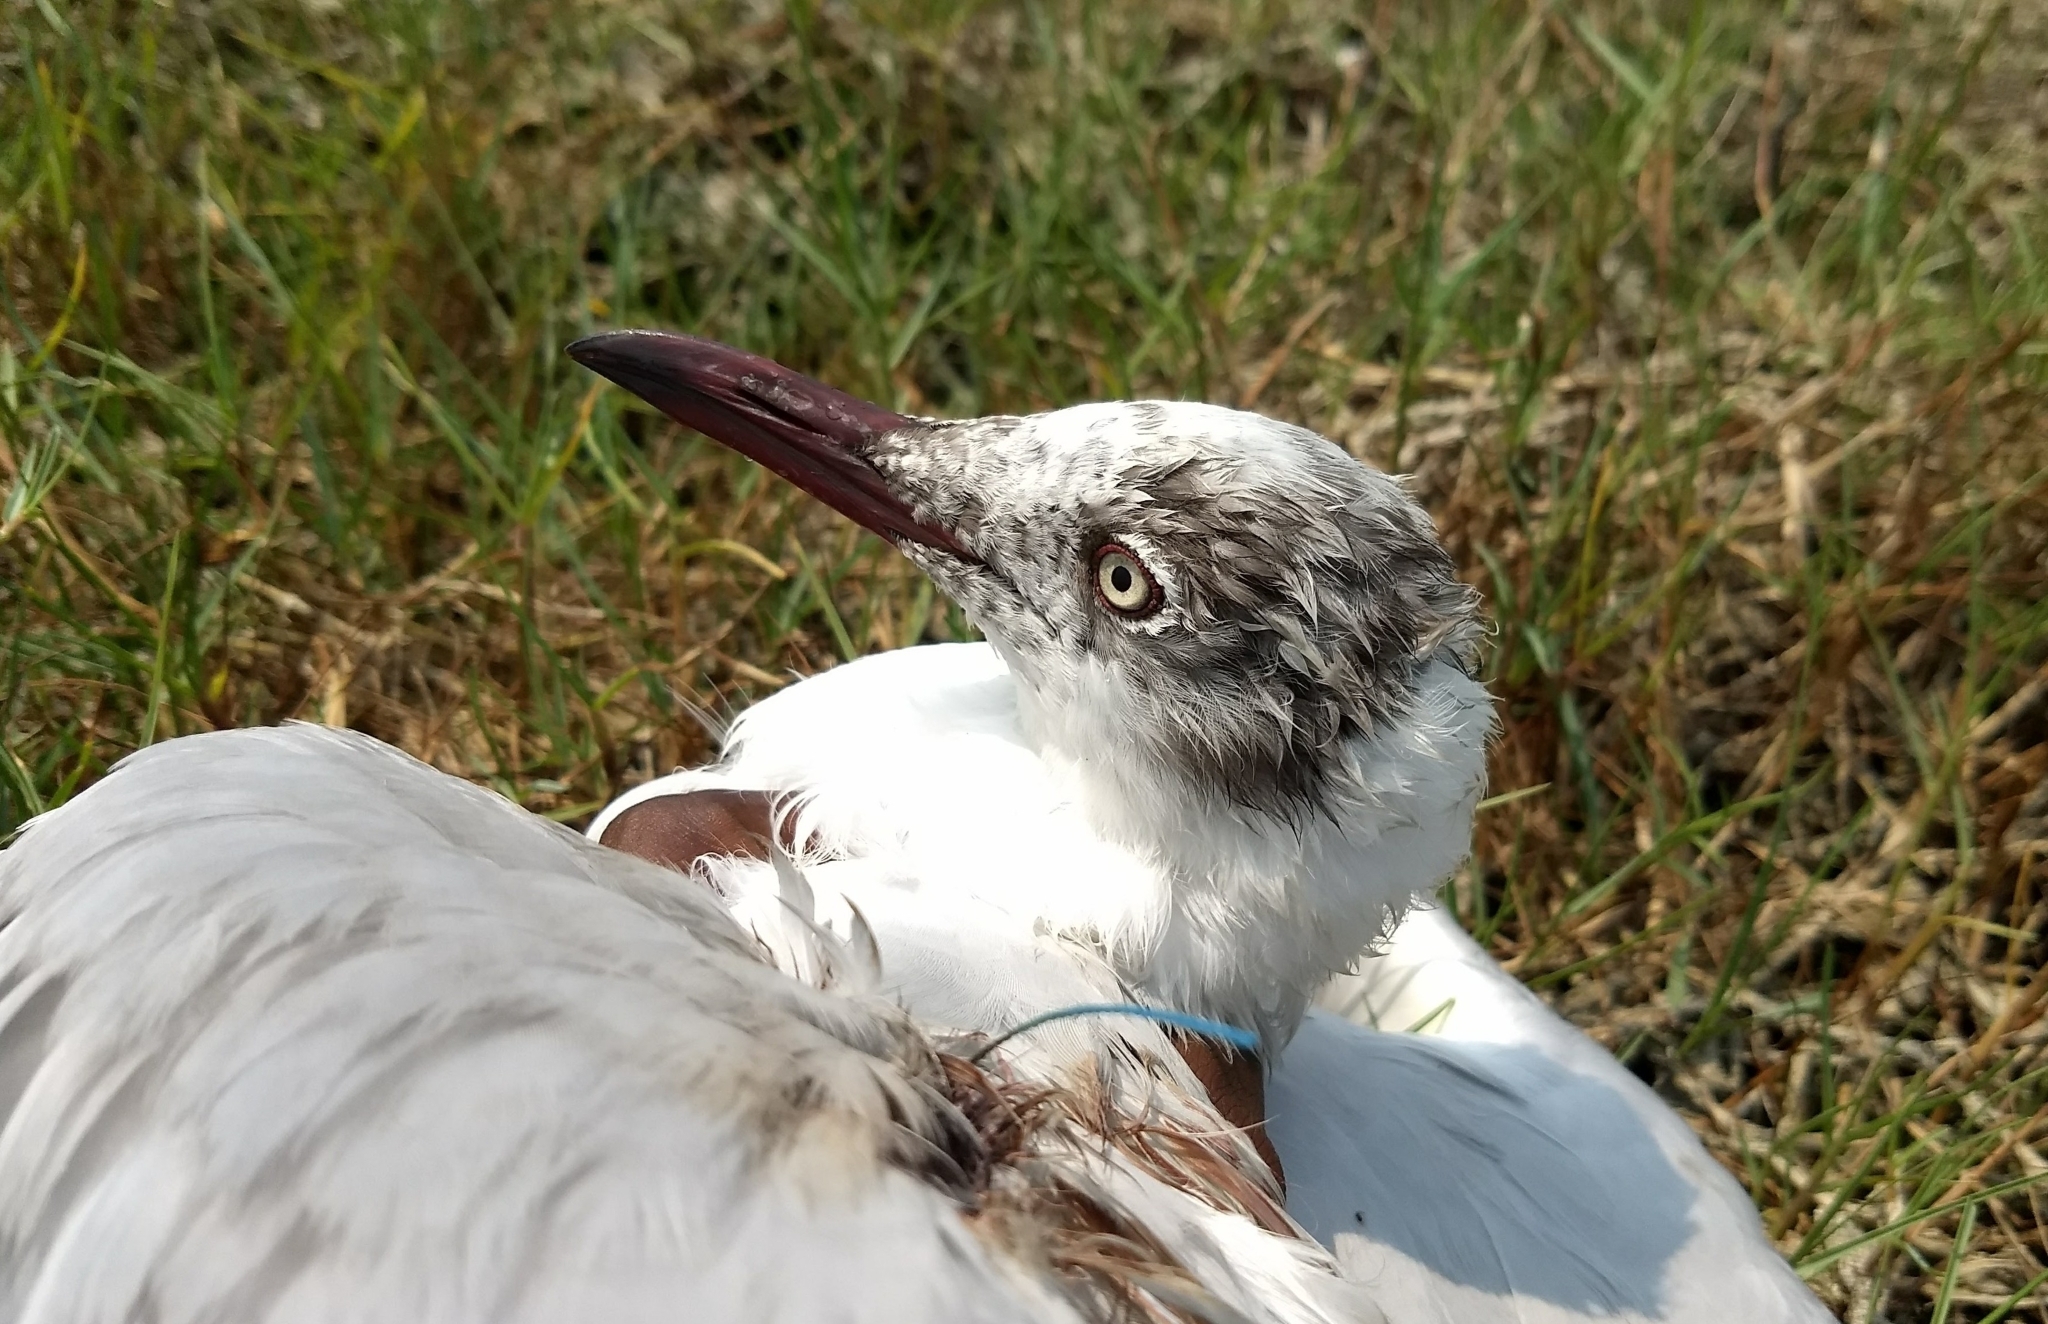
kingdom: Animalia
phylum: Chordata
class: Aves
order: Charadriiformes
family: Laridae
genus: Chroicocephalus
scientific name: Chroicocephalus brunnicephalus
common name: Brown-headed gull
